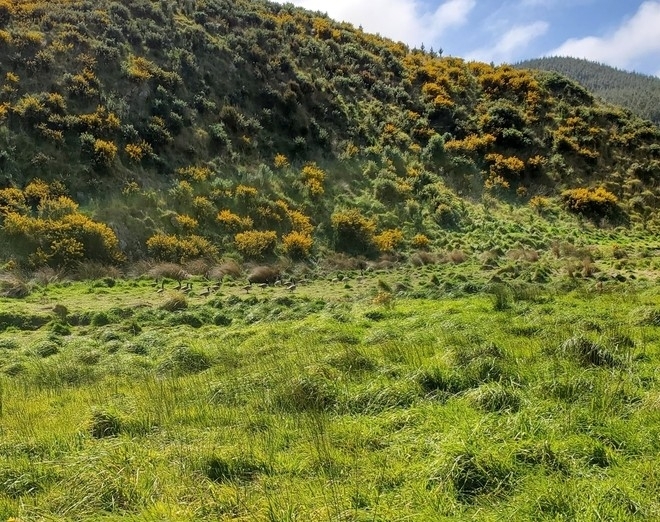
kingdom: Animalia
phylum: Chordata
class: Aves
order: Anseriformes
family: Anatidae
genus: Branta
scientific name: Branta canadensis
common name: Canada goose
